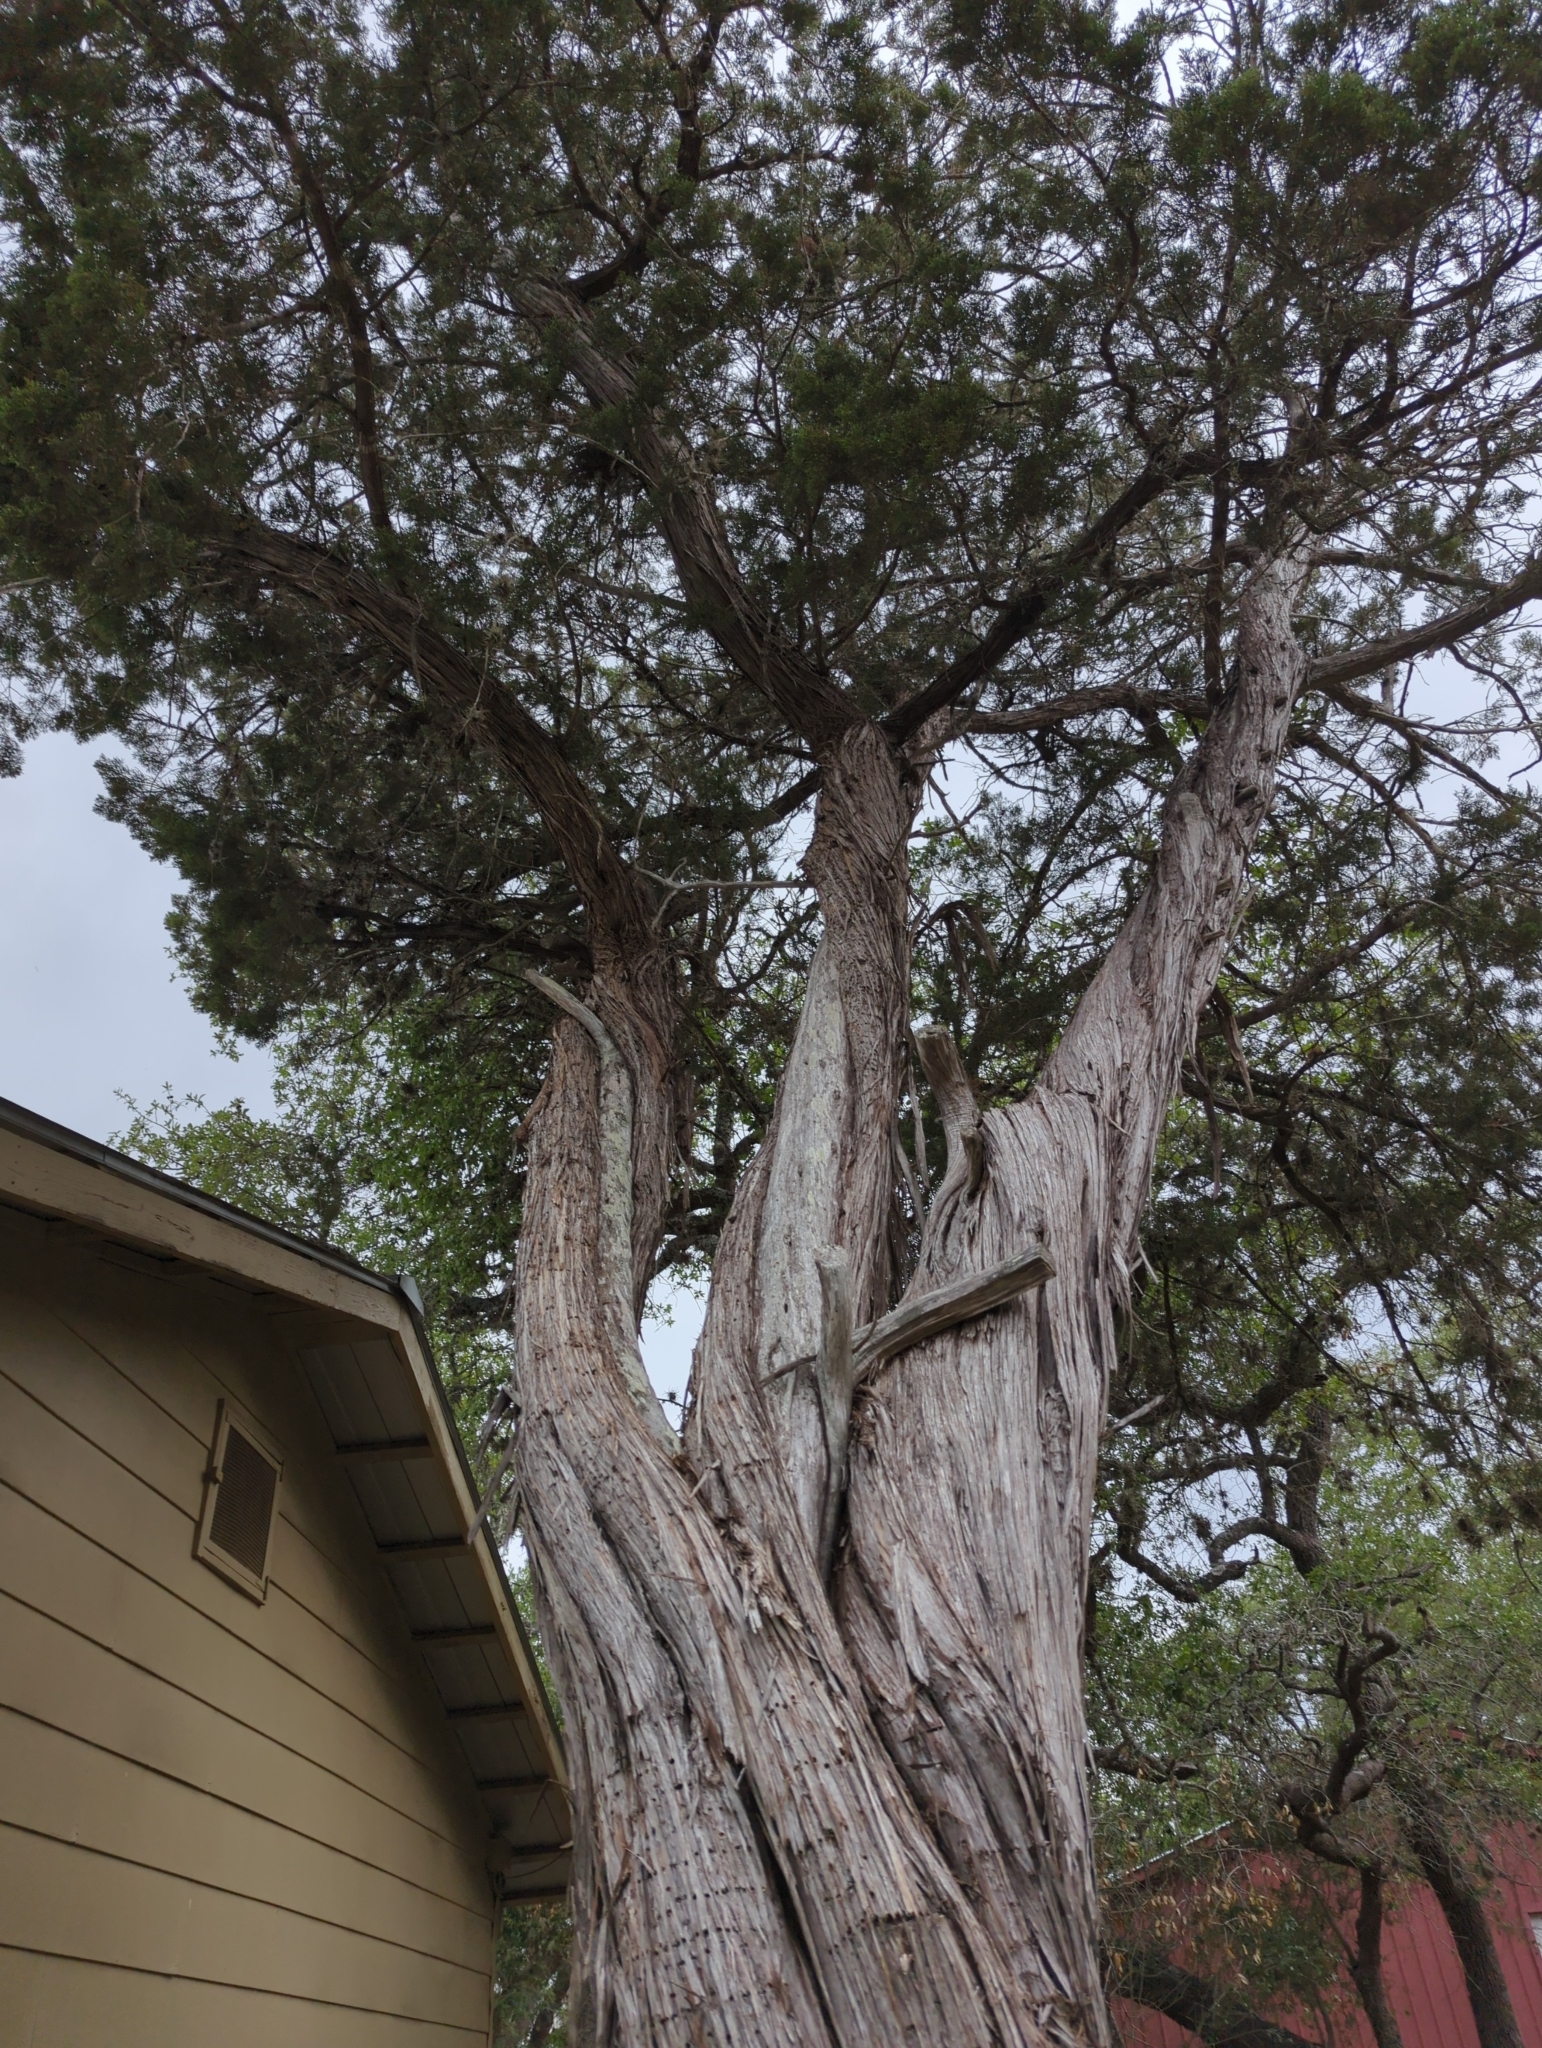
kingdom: Plantae
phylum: Tracheophyta
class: Pinopsida
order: Pinales
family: Cupressaceae
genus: Juniperus
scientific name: Juniperus ashei
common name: Mexican juniper
